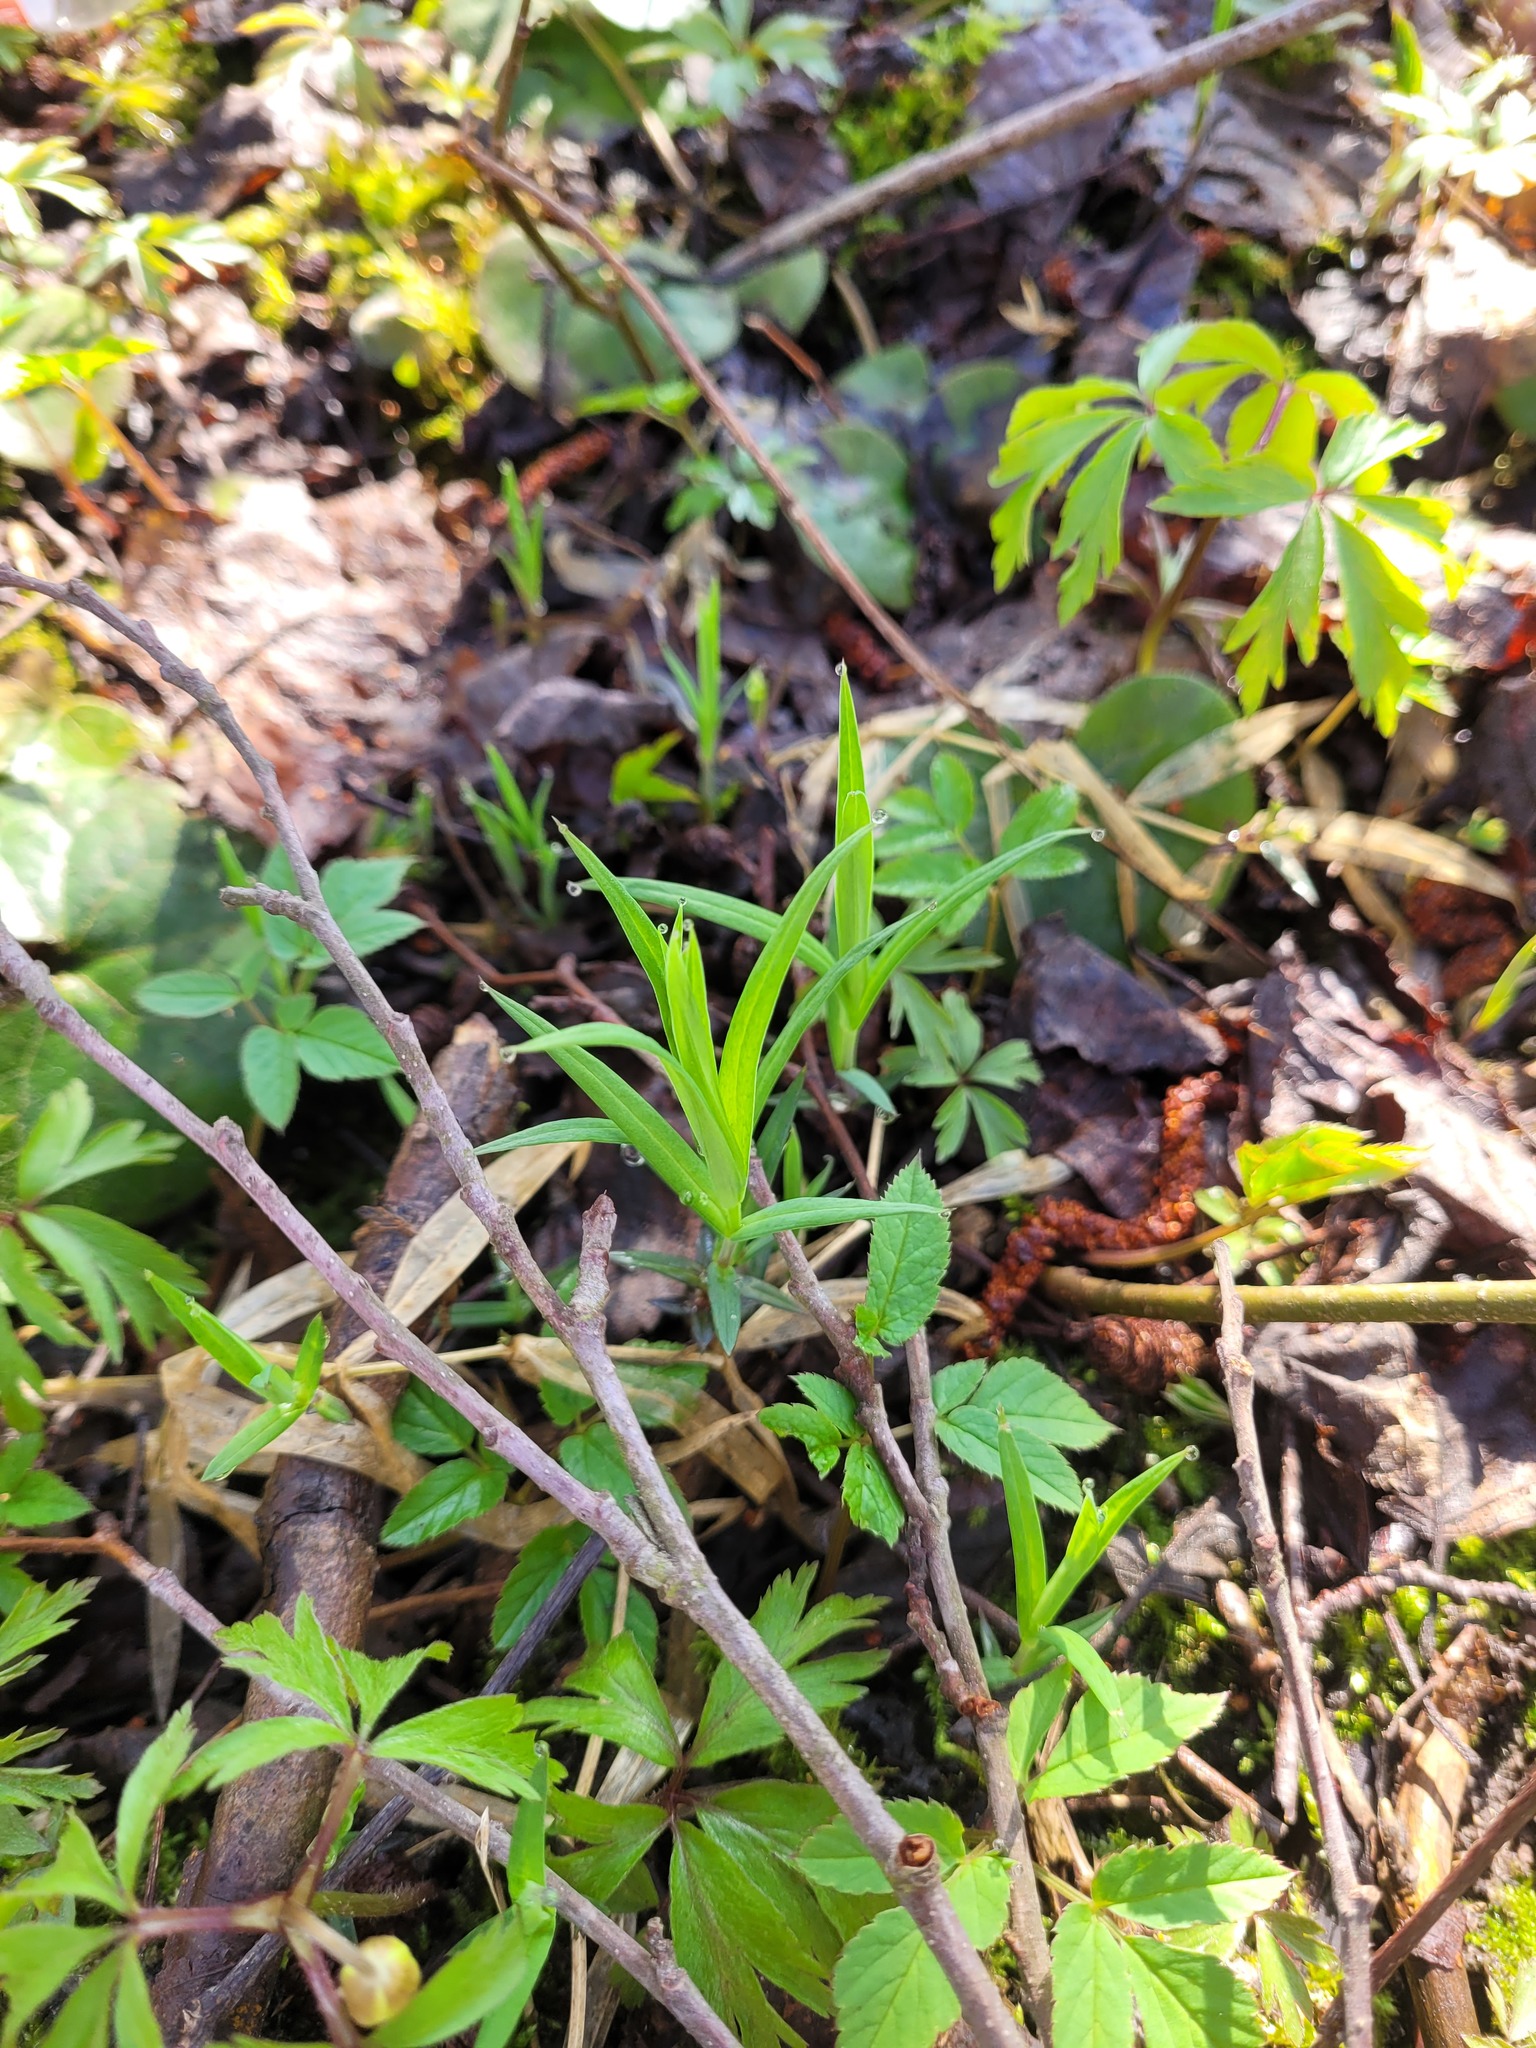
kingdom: Plantae
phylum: Tracheophyta
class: Magnoliopsida
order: Caryophyllales
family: Caryophyllaceae
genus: Rabelera
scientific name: Rabelera holostea
